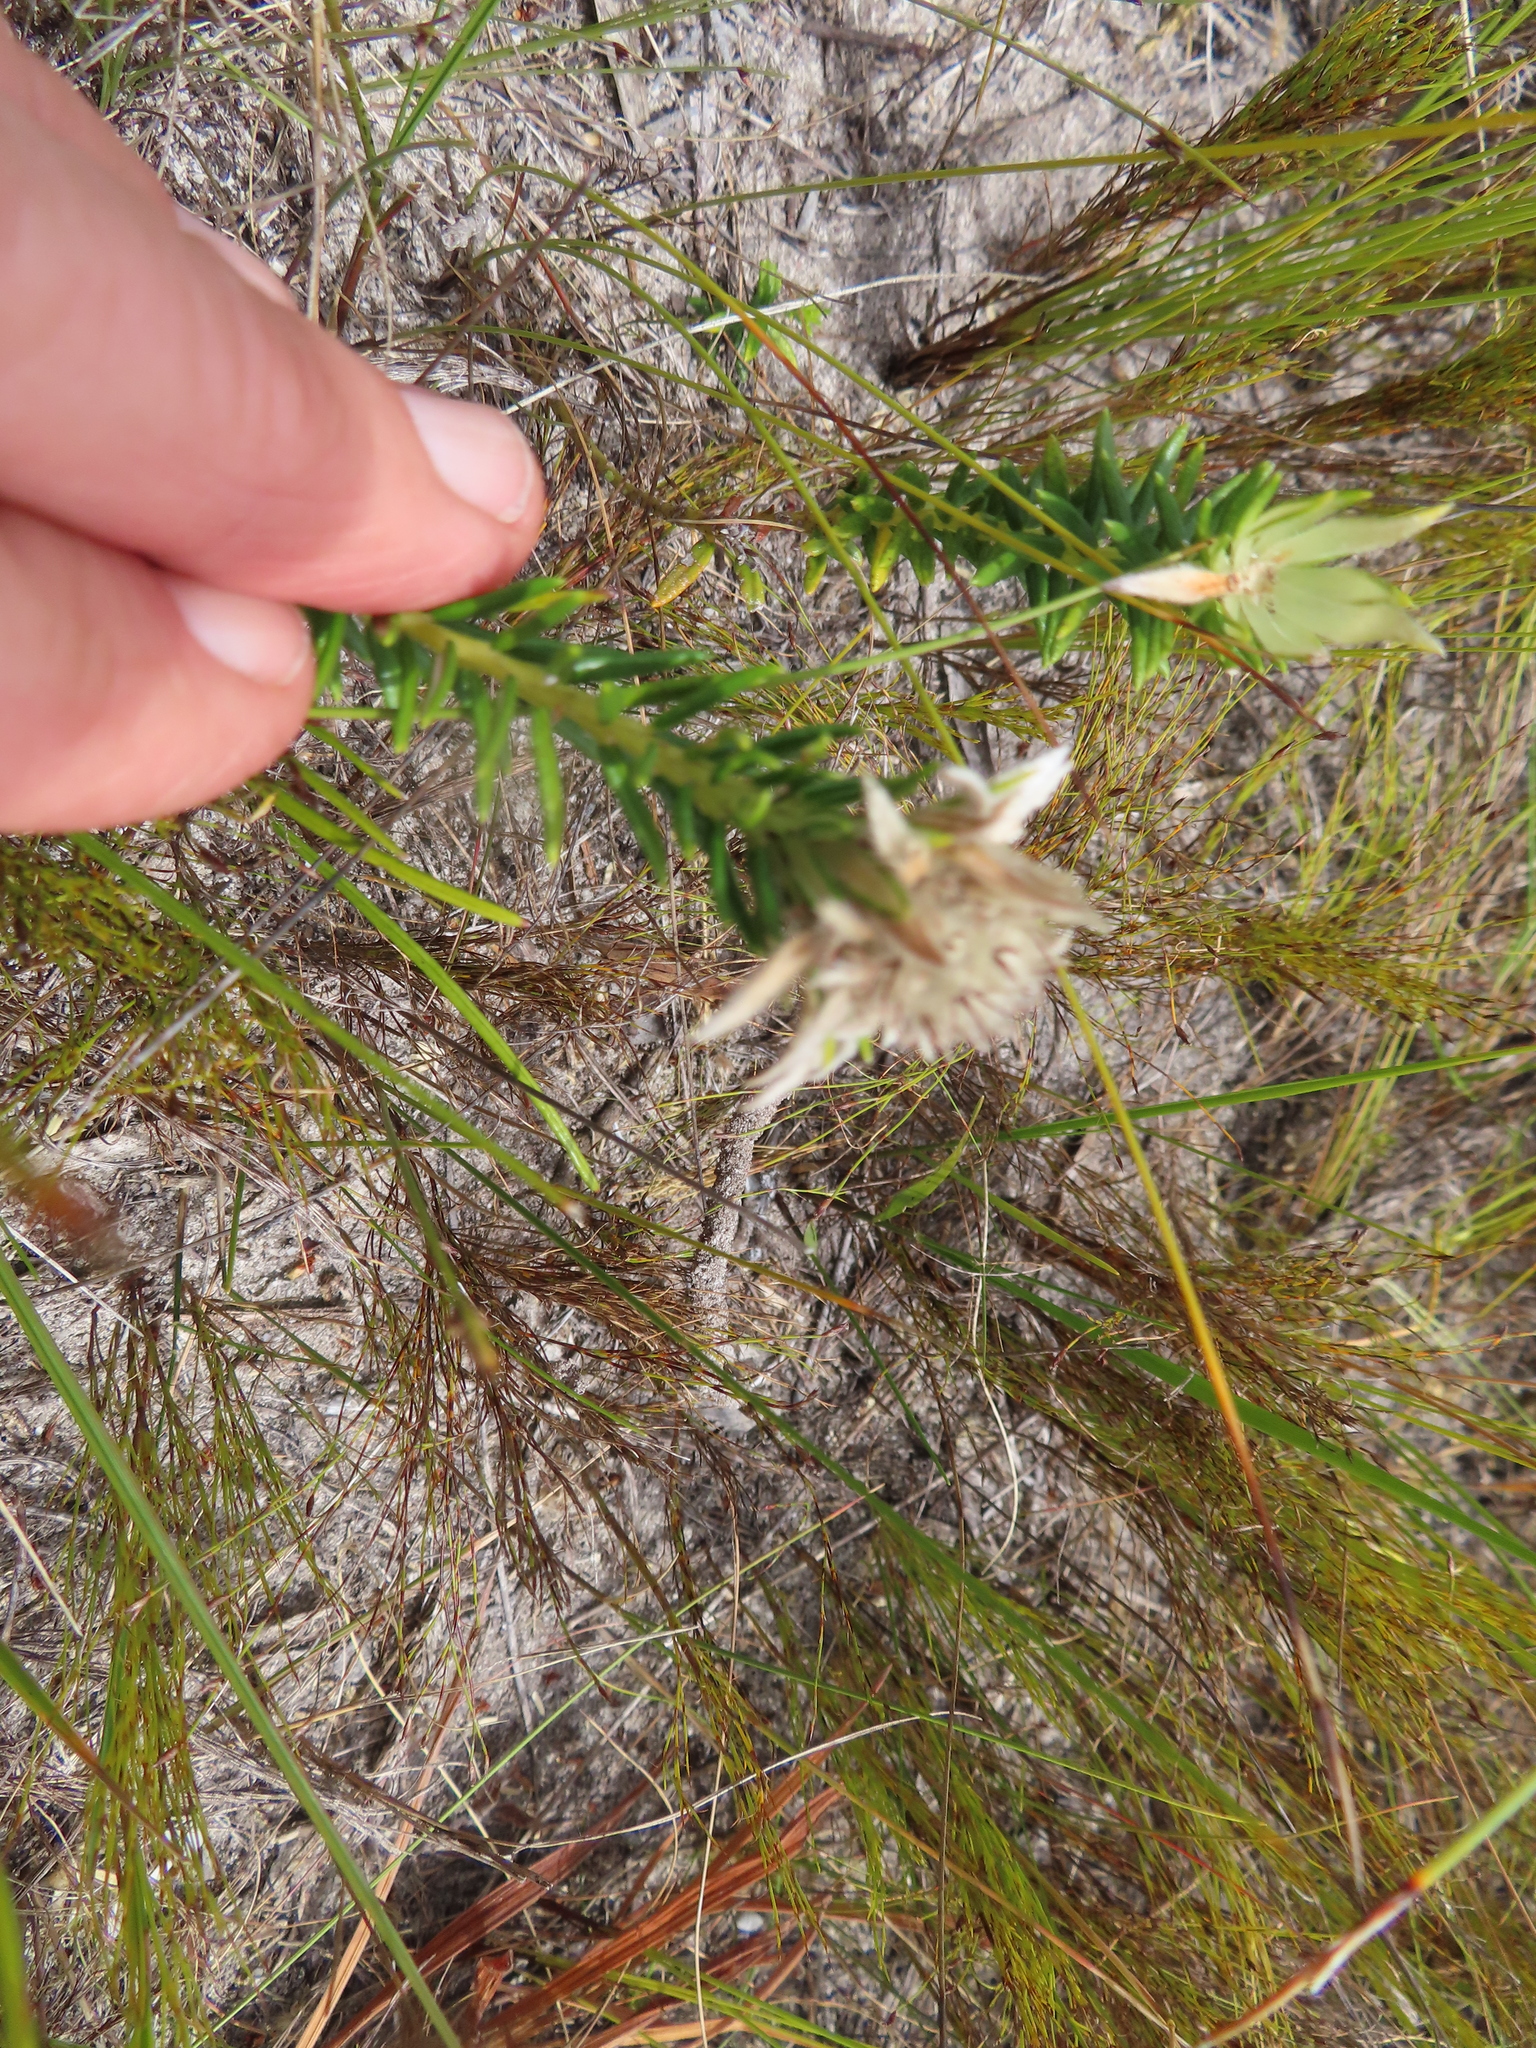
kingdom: Plantae
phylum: Tracheophyta
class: Magnoliopsida
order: Rosales
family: Rhamnaceae
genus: Phylica
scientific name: Phylica dodii
